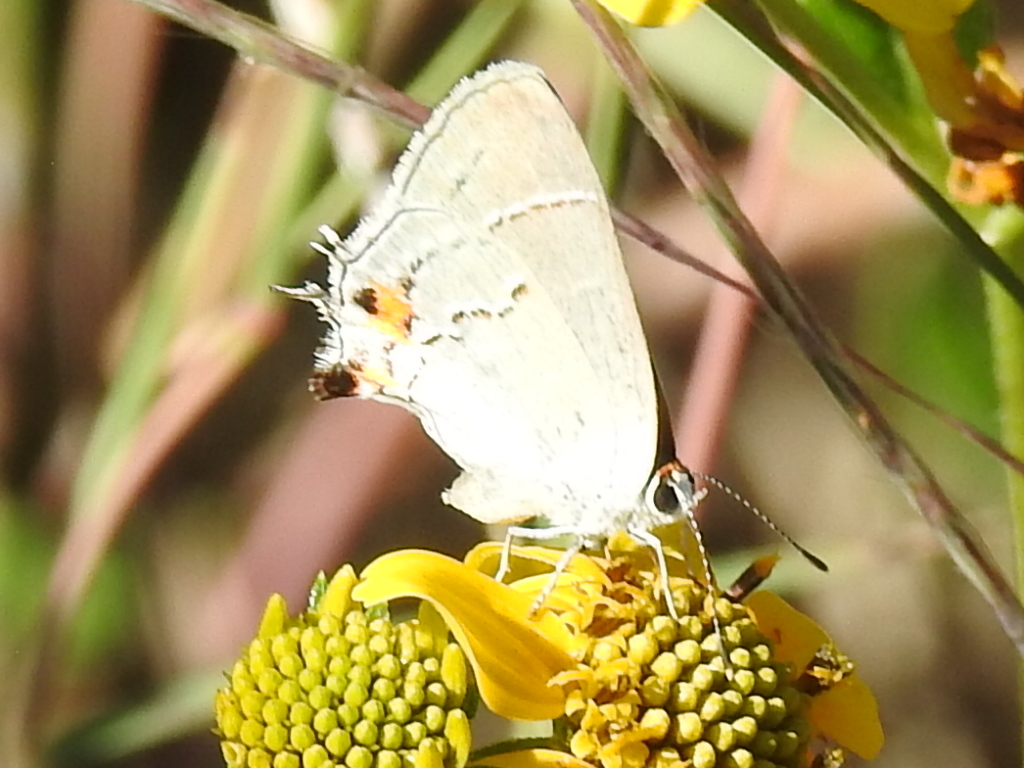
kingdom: Animalia
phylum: Arthropoda
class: Insecta
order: Lepidoptera
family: Lycaenidae
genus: Strymon
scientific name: Strymon melinus
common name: Gray hairstreak
